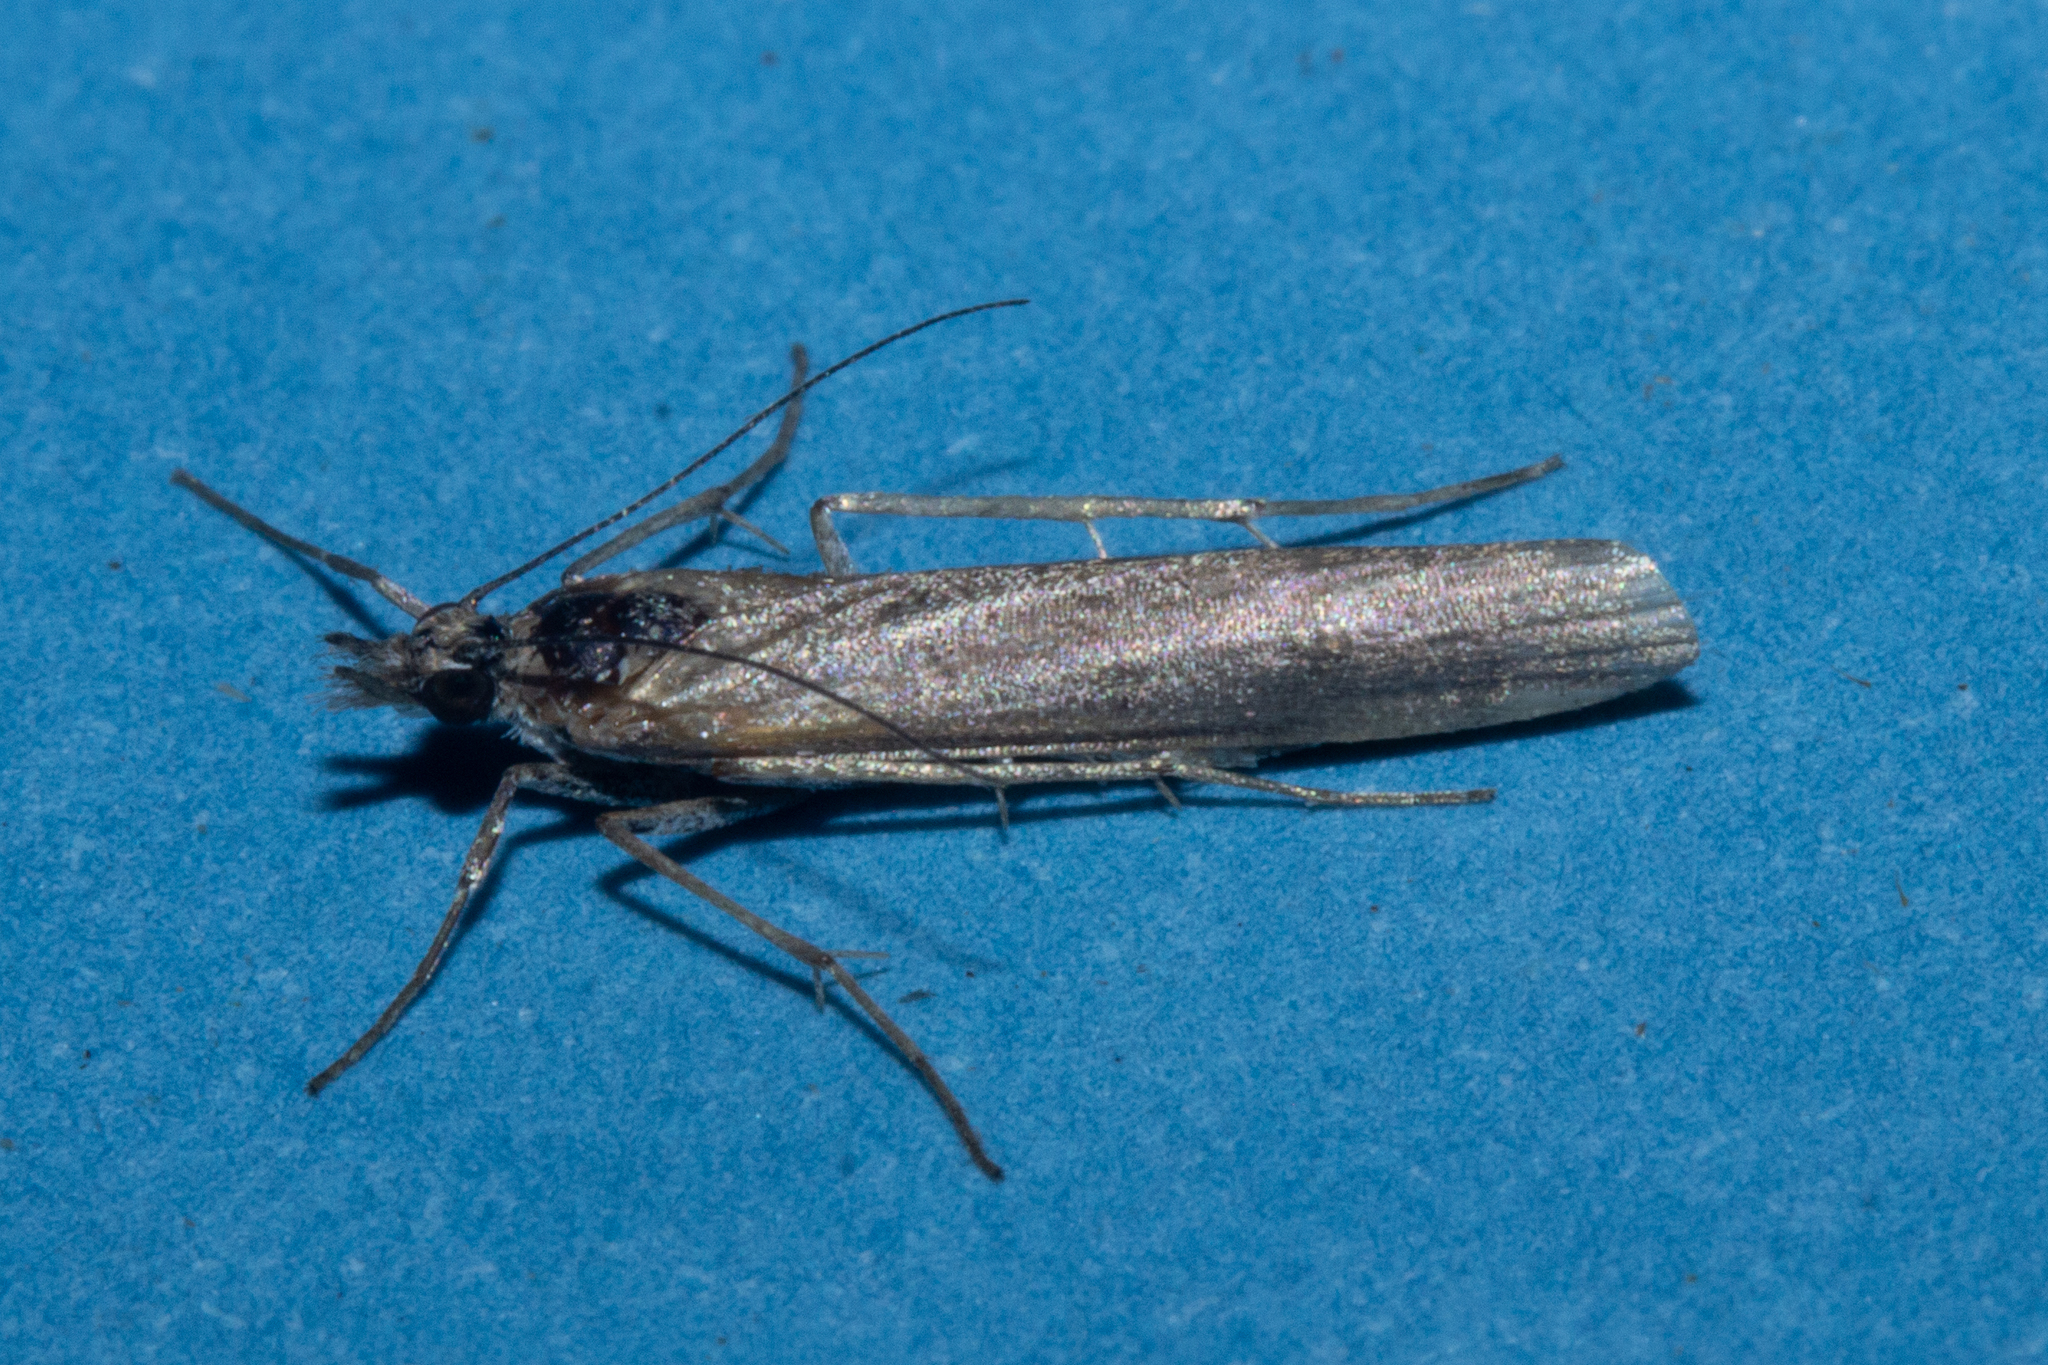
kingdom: Animalia
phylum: Arthropoda
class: Insecta
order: Lepidoptera
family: Crambidae
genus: Eudonia
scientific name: Eudonia leptalea
